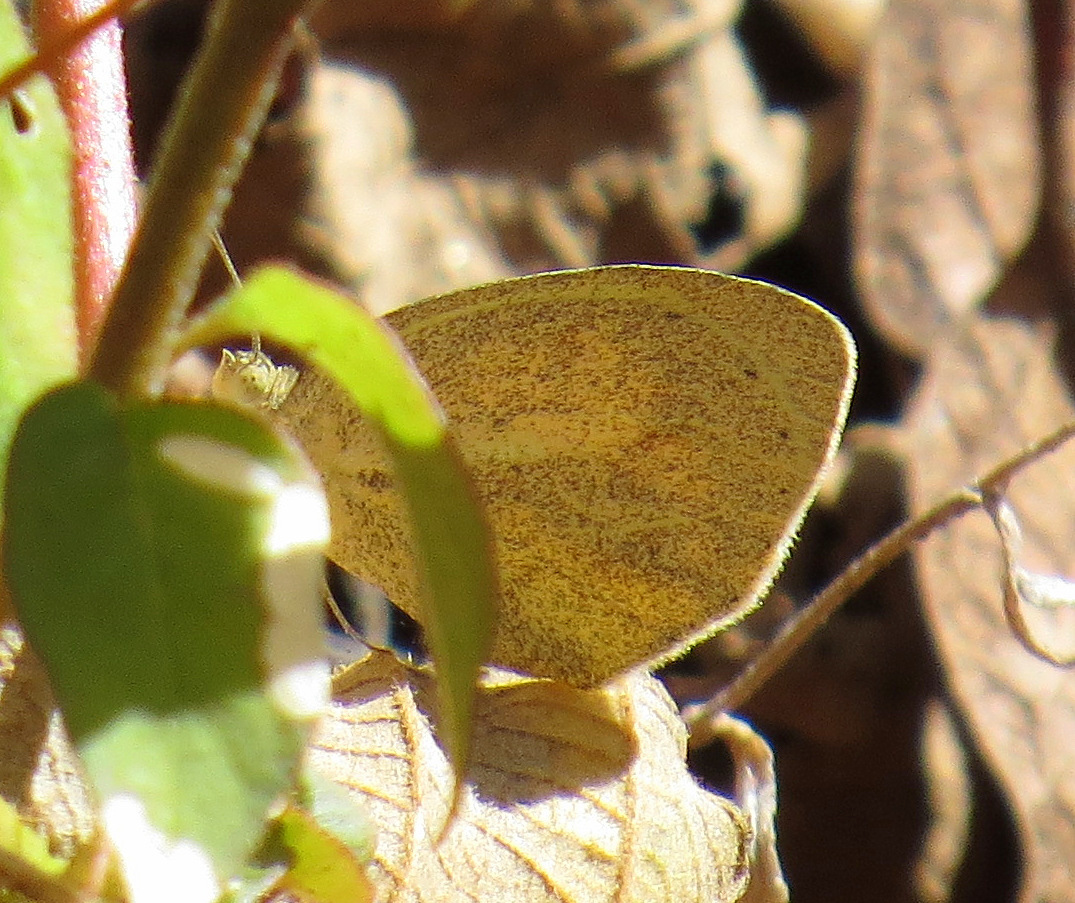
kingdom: Animalia
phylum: Arthropoda
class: Insecta
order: Lepidoptera
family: Pieridae
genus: Eurema
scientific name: Eurema daira
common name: Barred sulphur
